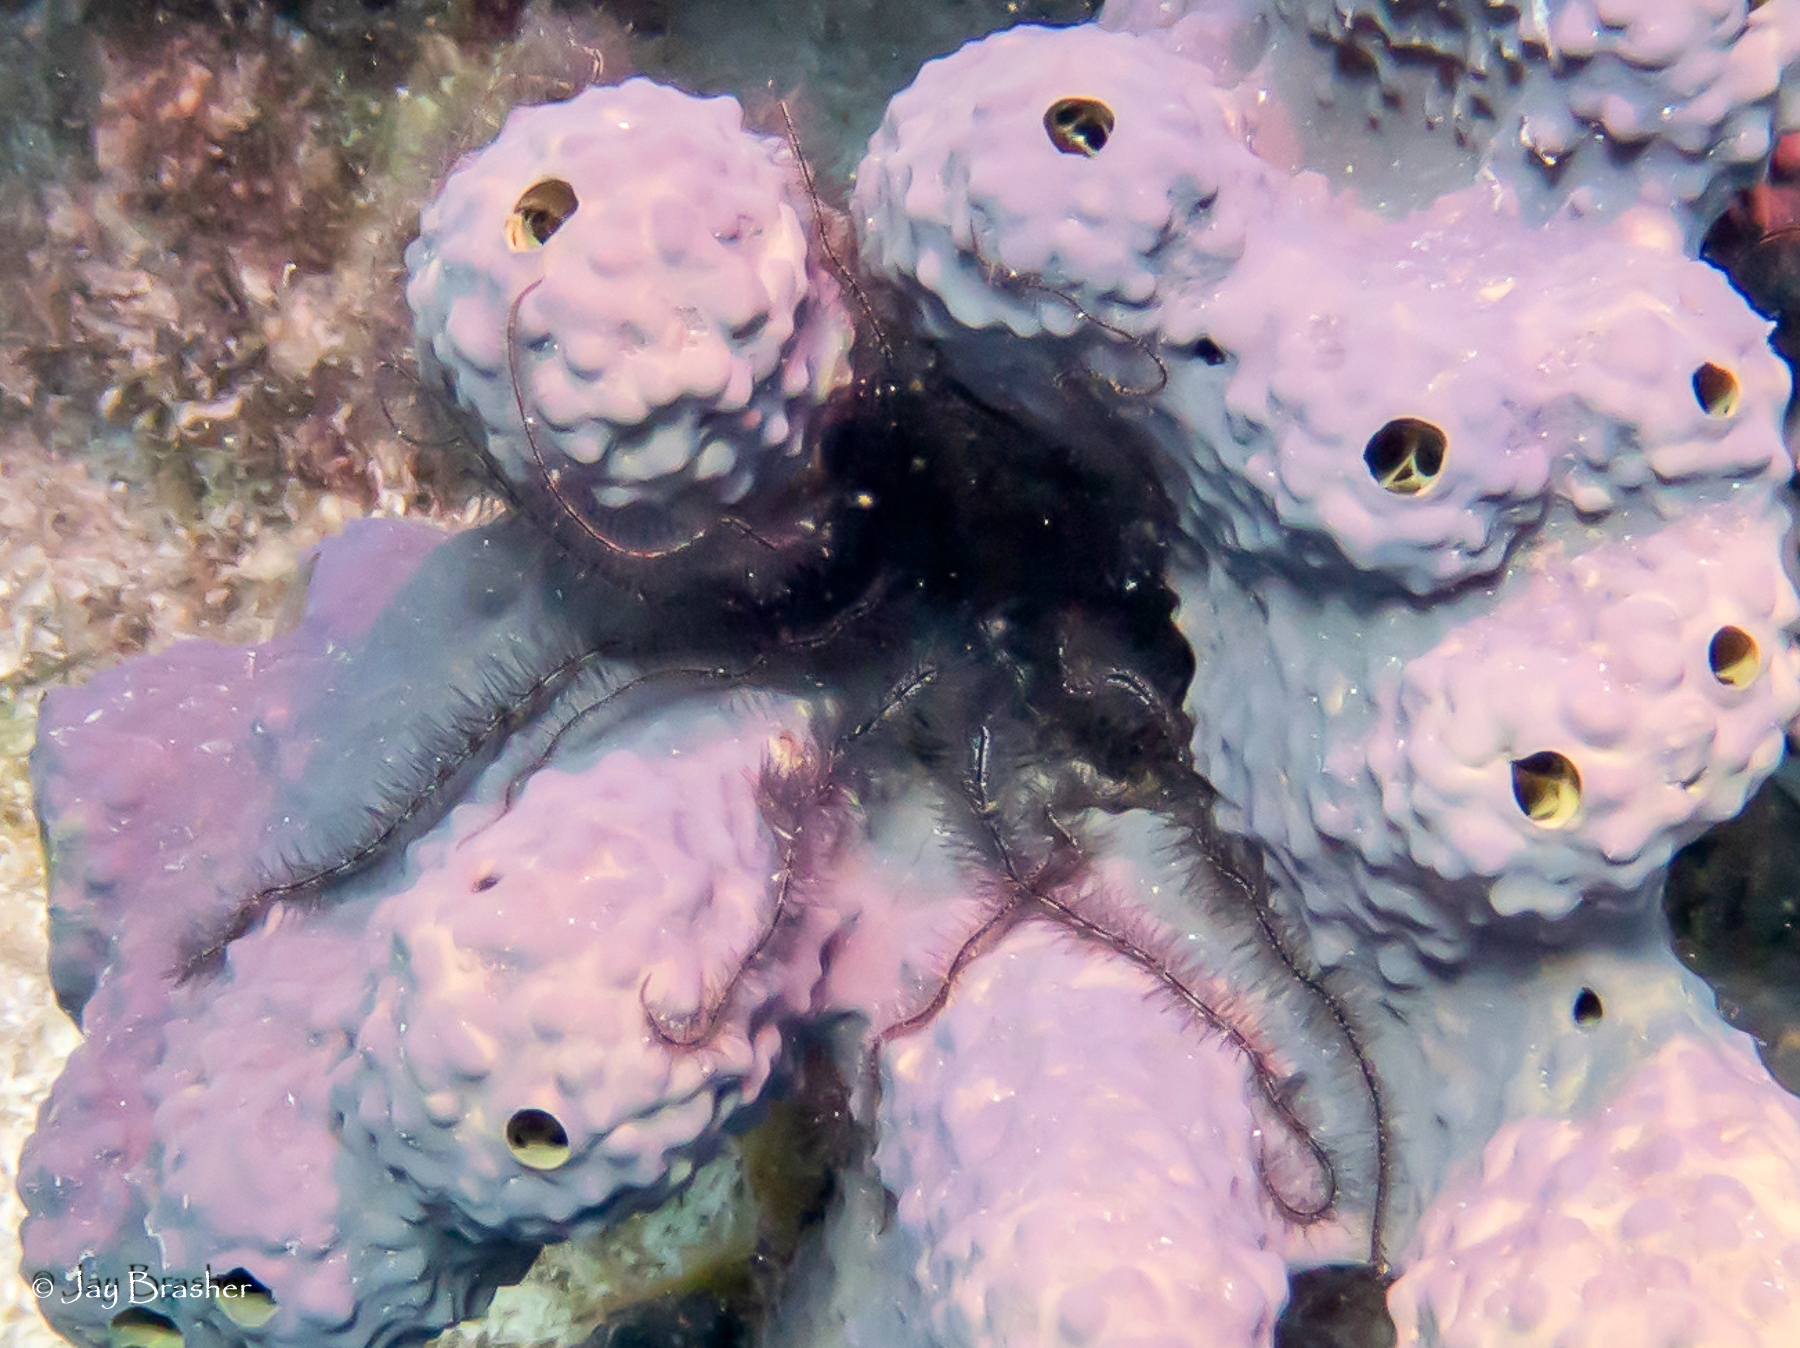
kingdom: Animalia
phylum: Echinodermata
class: Ophiuroidea
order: Amphilepidida
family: Ophiotrichidae
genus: Ophiothrix
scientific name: Ophiothrix suensonii
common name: Sponge brittle star
